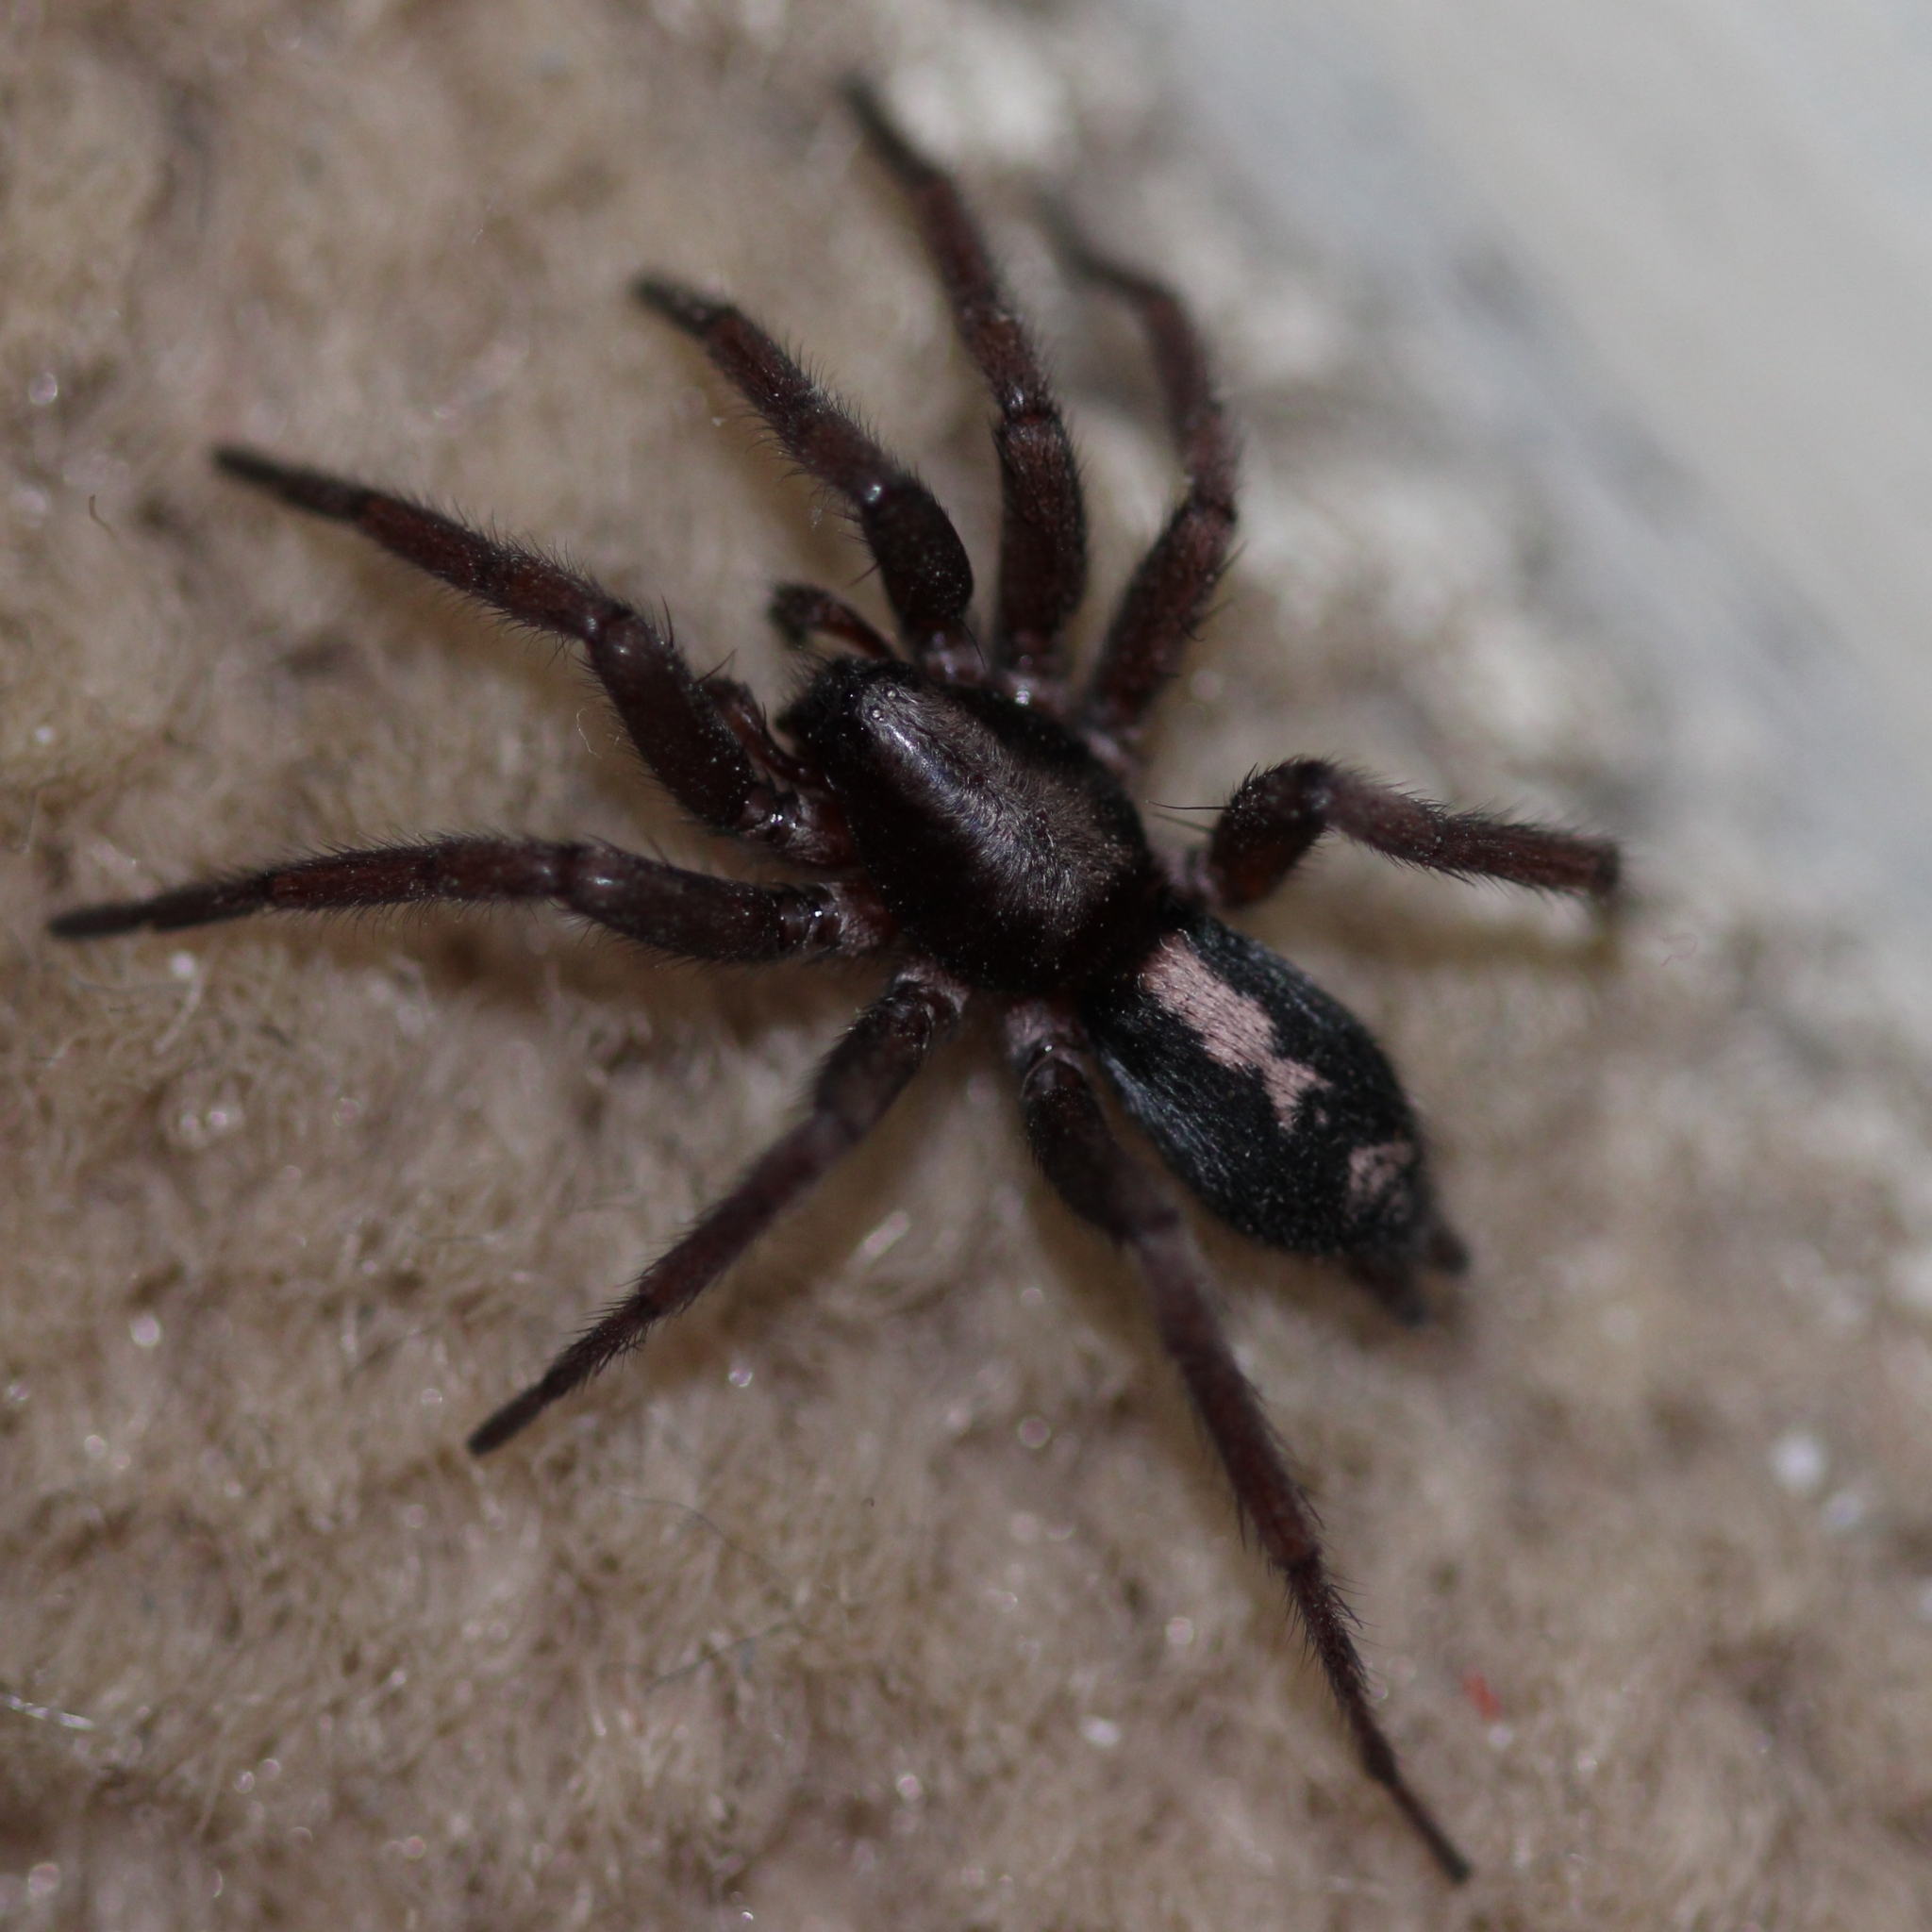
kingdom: Animalia
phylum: Arthropoda
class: Arachnida
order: Araneae
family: Gnaphosidae
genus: Herpyllus
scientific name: Herpyllus ecclesiasticus
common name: Eastern parson spider
